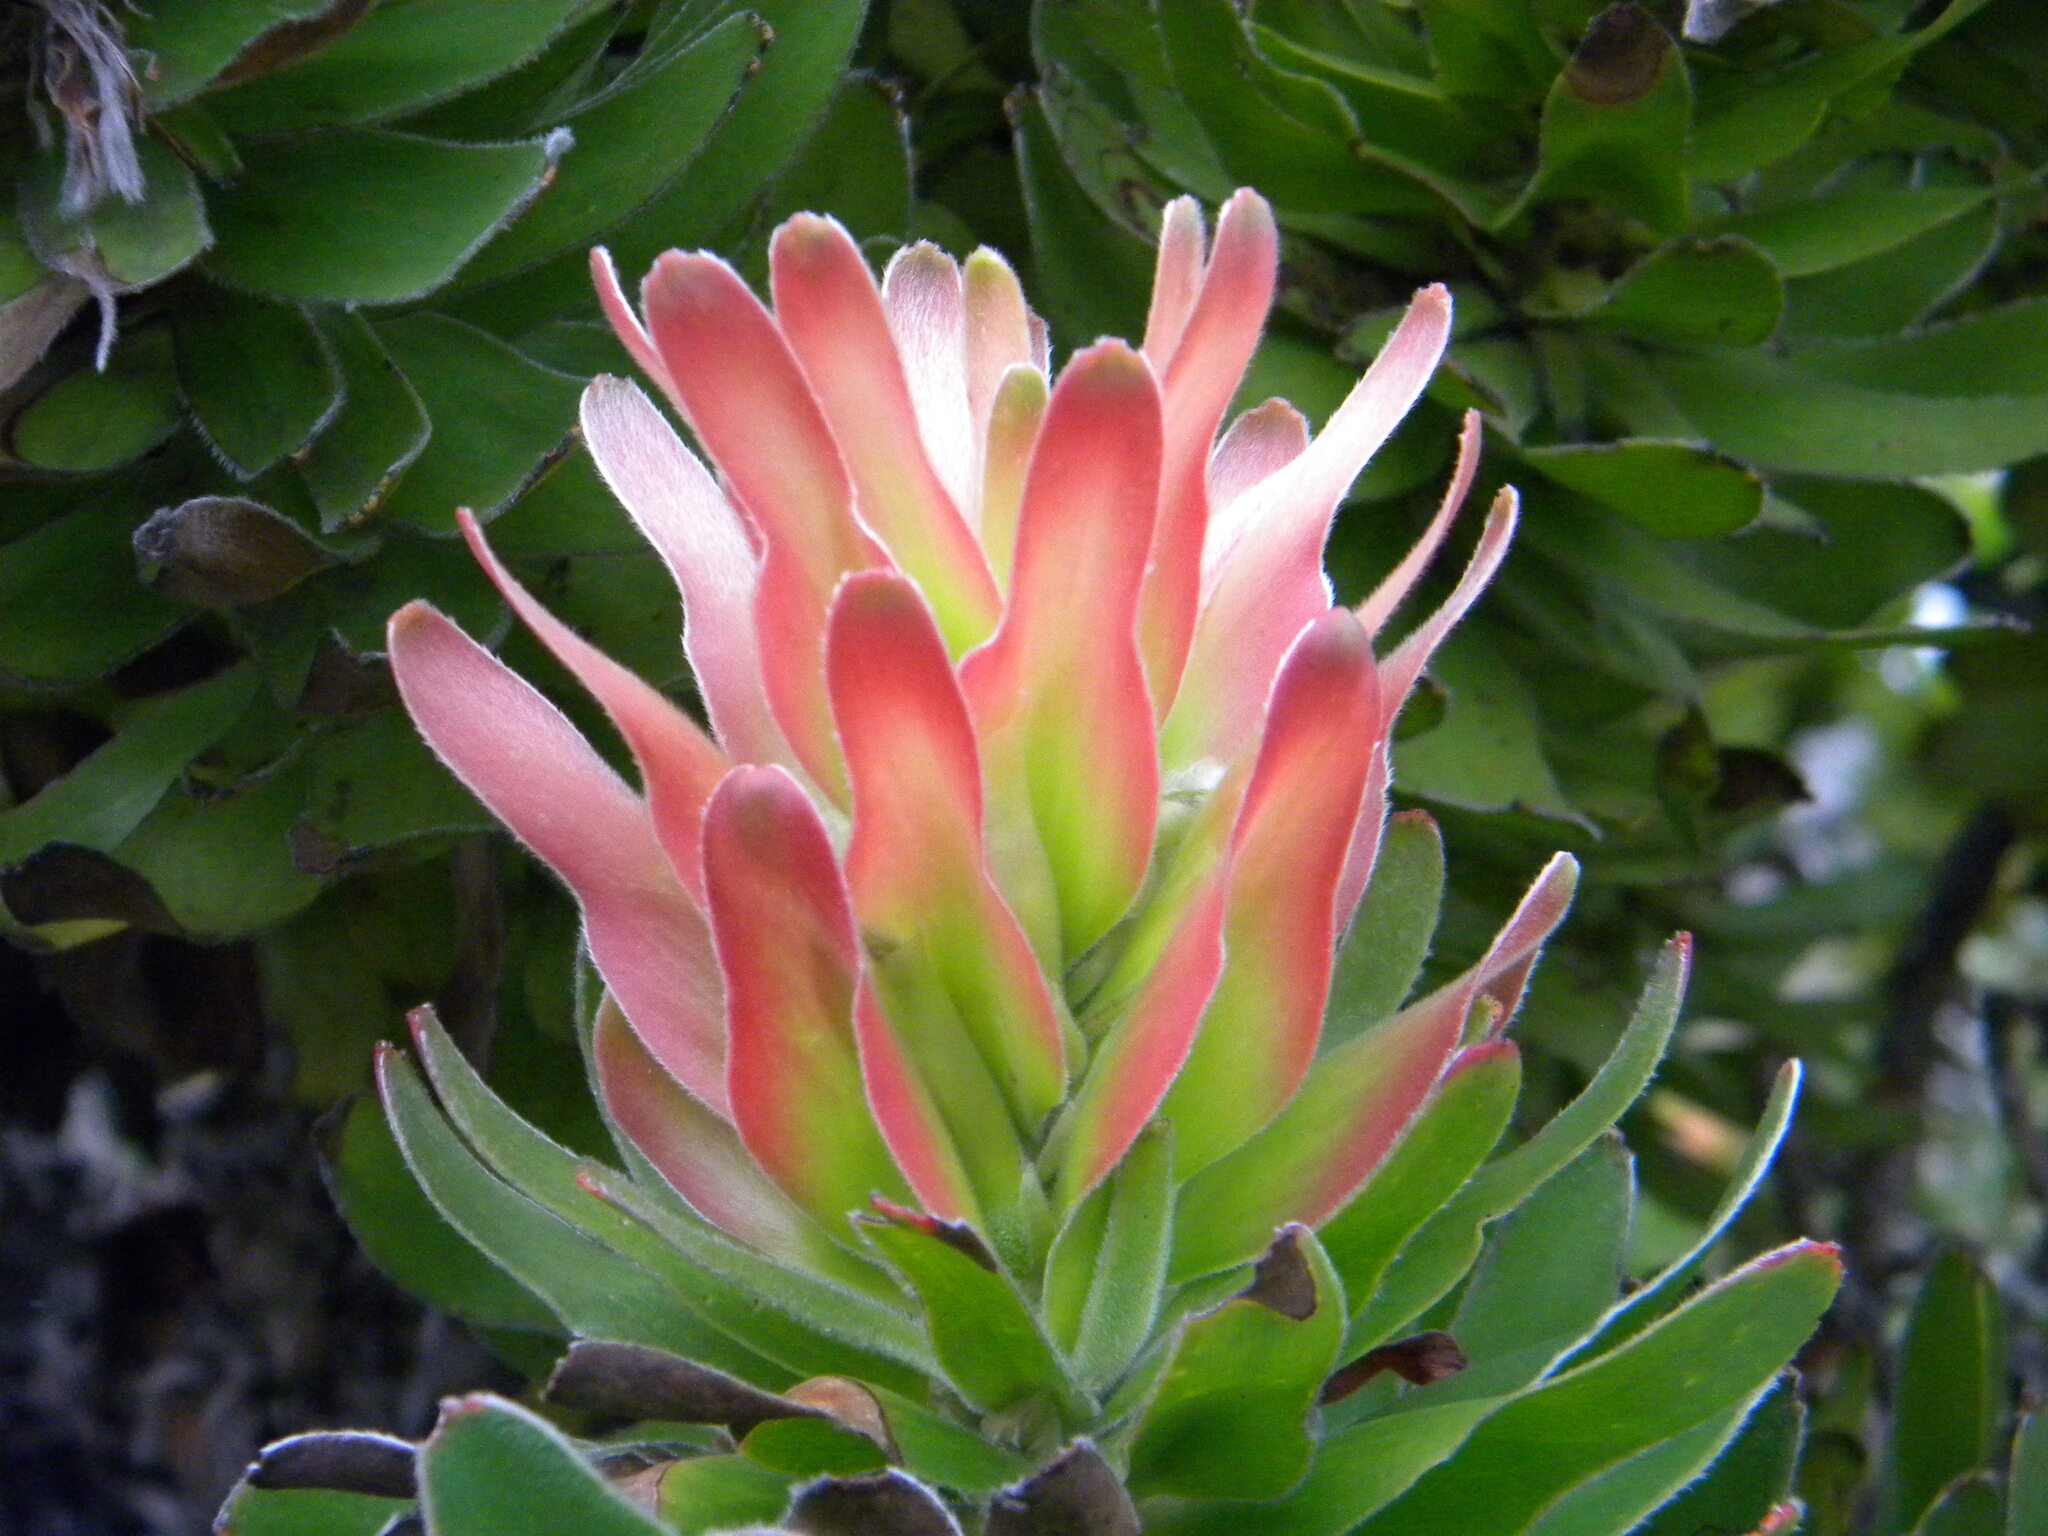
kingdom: Plantae
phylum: Tracheophyta
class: Magnoliopsida
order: Proteales
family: Proteaceae
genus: Mimetes
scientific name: Mimetes fimbriifolius
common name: Fringed bottlebrush
